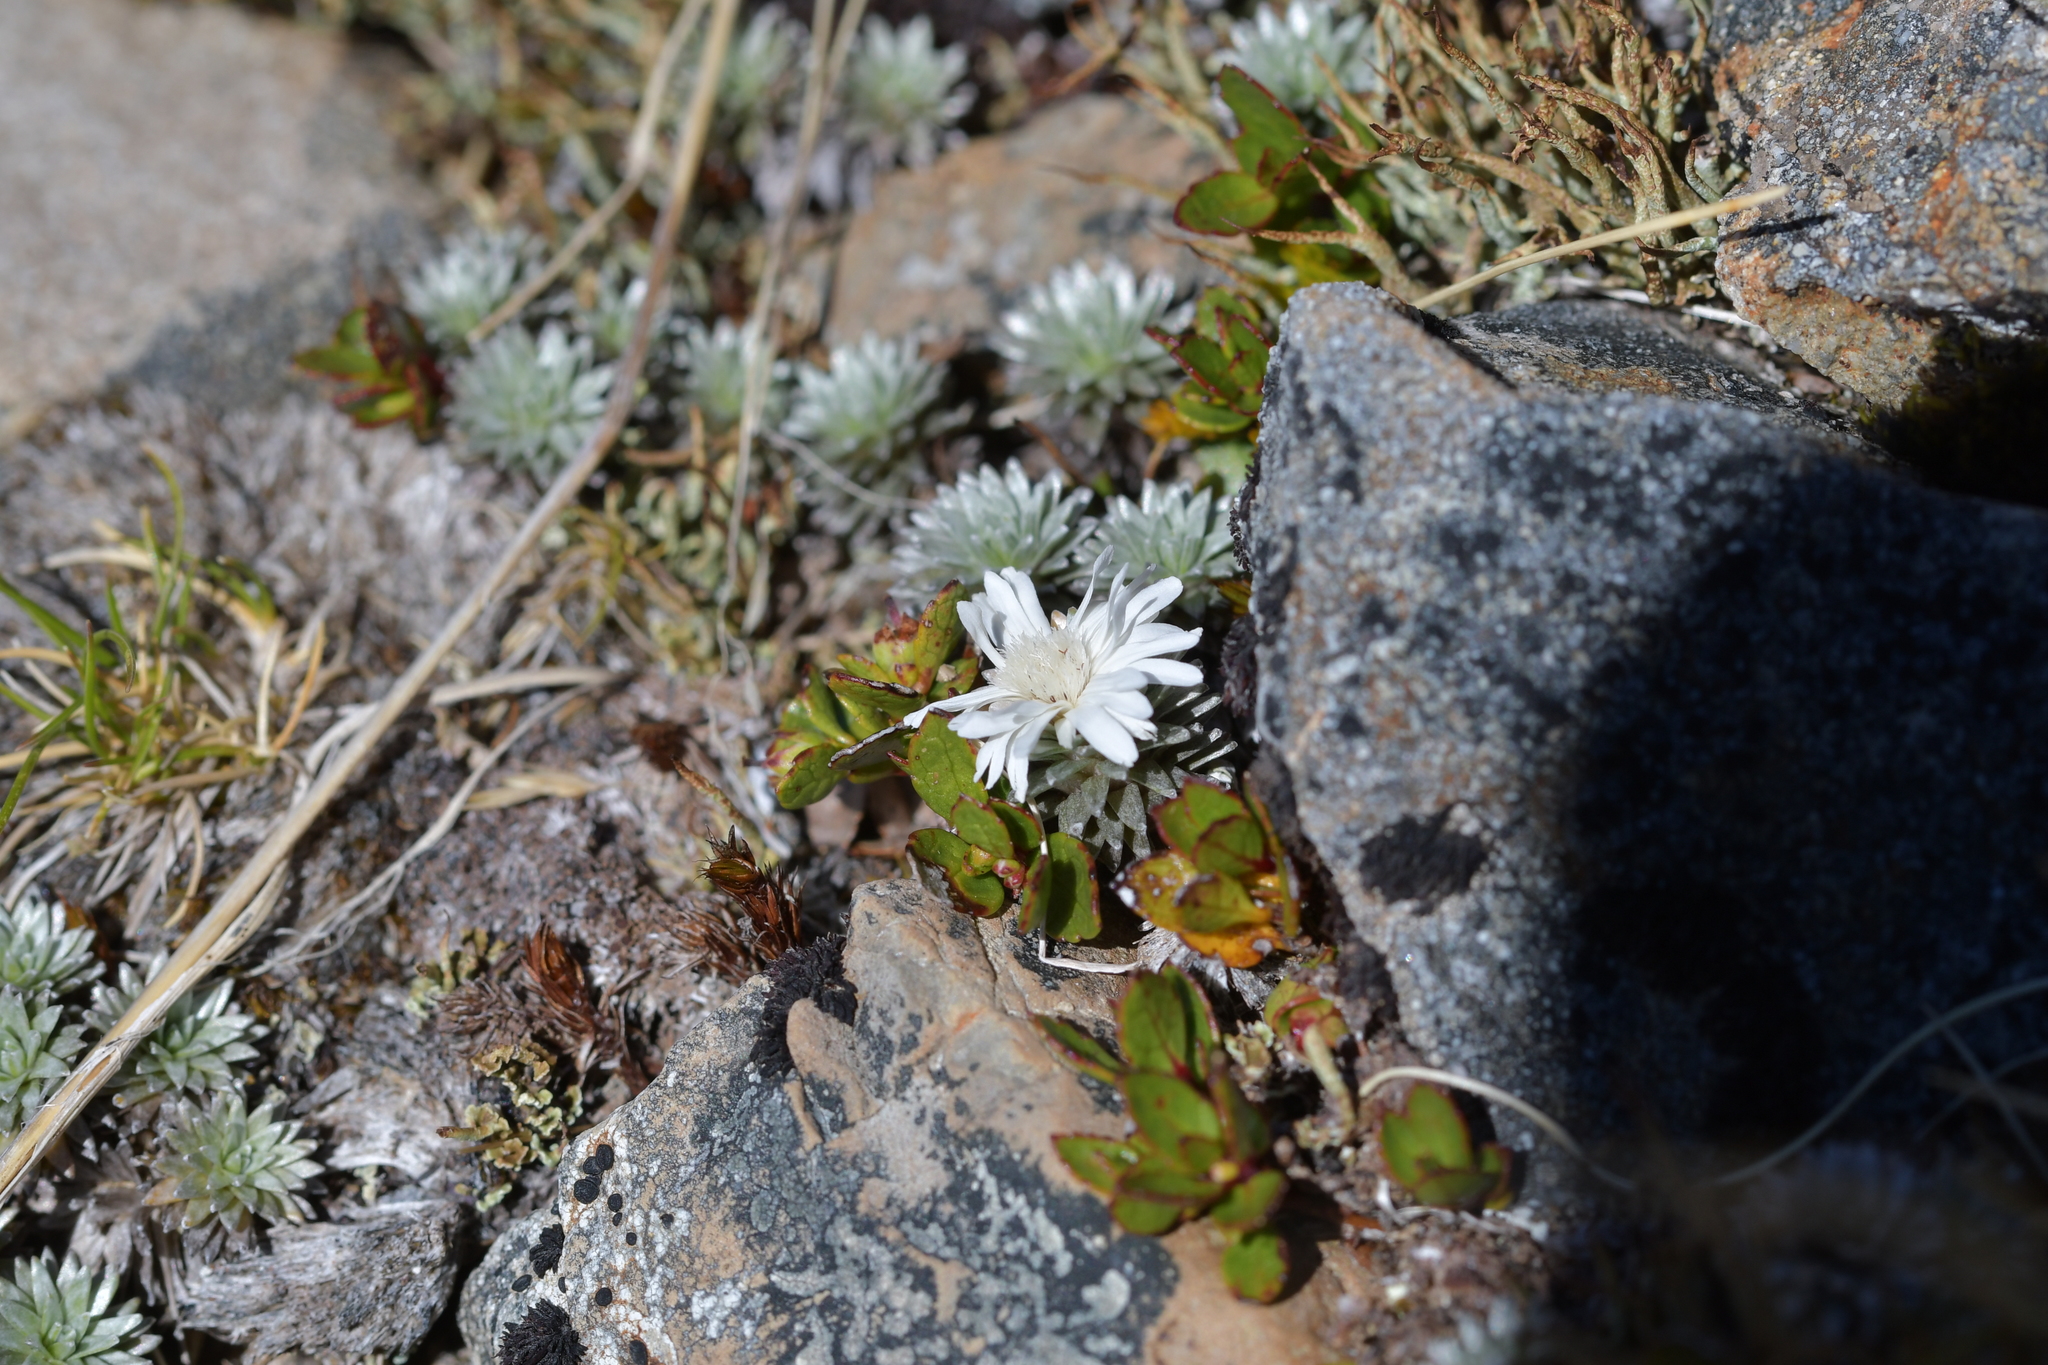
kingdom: Plantae
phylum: Tracheophyta
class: Magnoliopsida
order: Asterales
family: Asteraceae
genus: Raoulia
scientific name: Raoulia grandiflora
